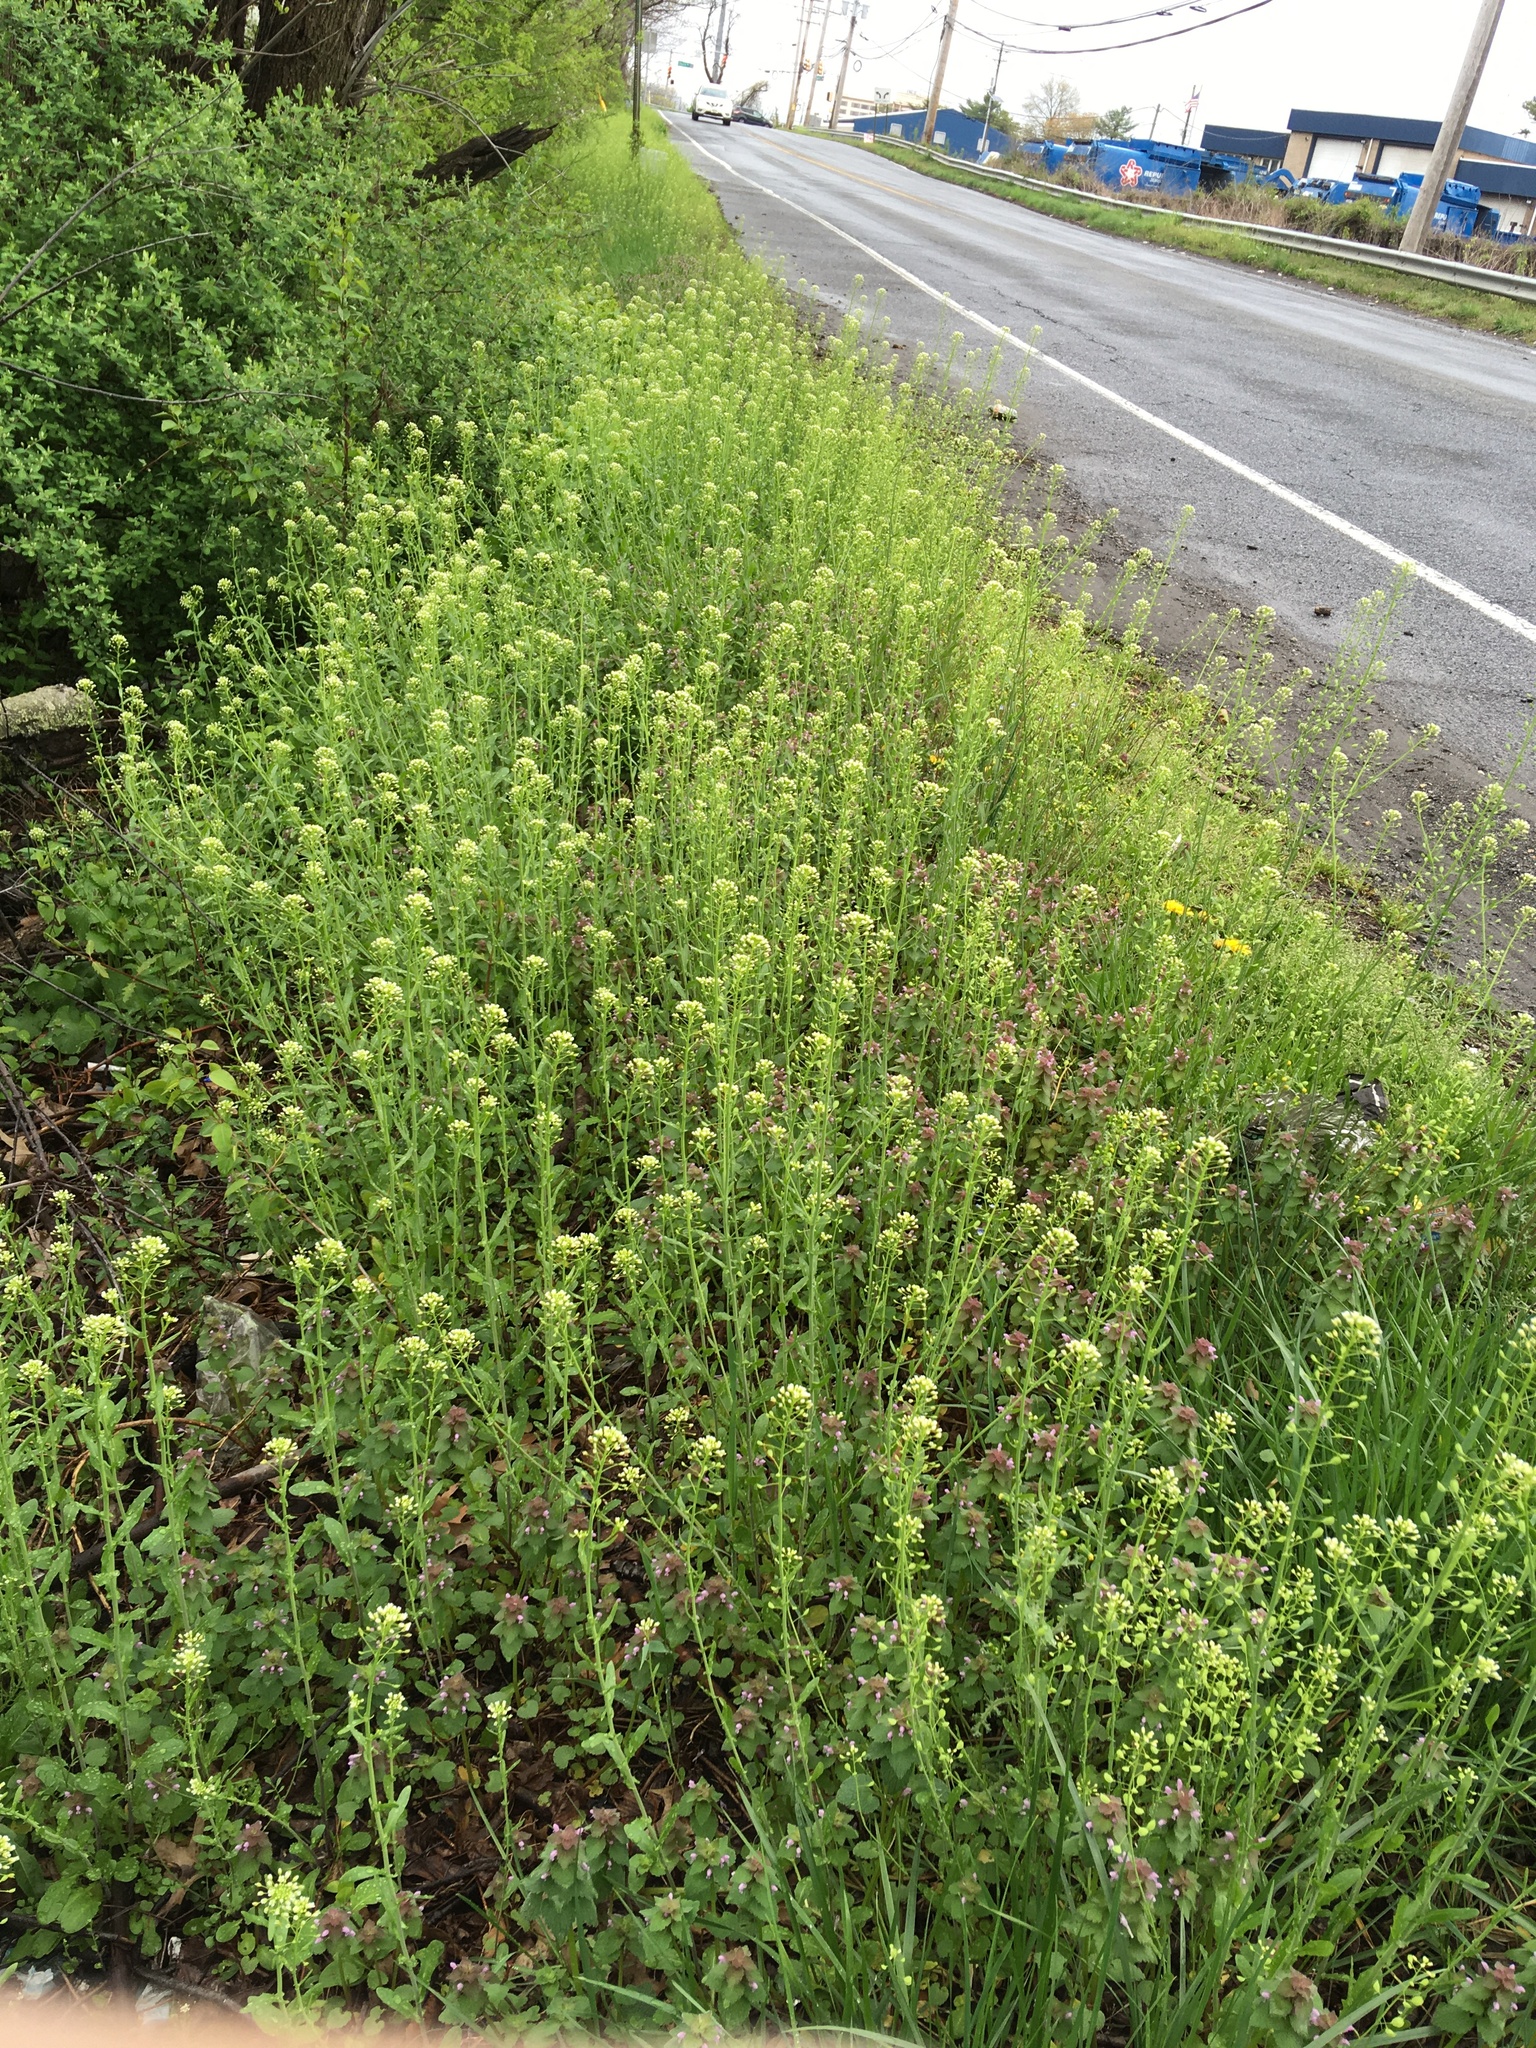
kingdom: Plantae
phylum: Tracheophyta
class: Magnoliopsida
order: Brassicales
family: Brassicaceae
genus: Mummenhoffia
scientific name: Mummenhoffia alliacea
